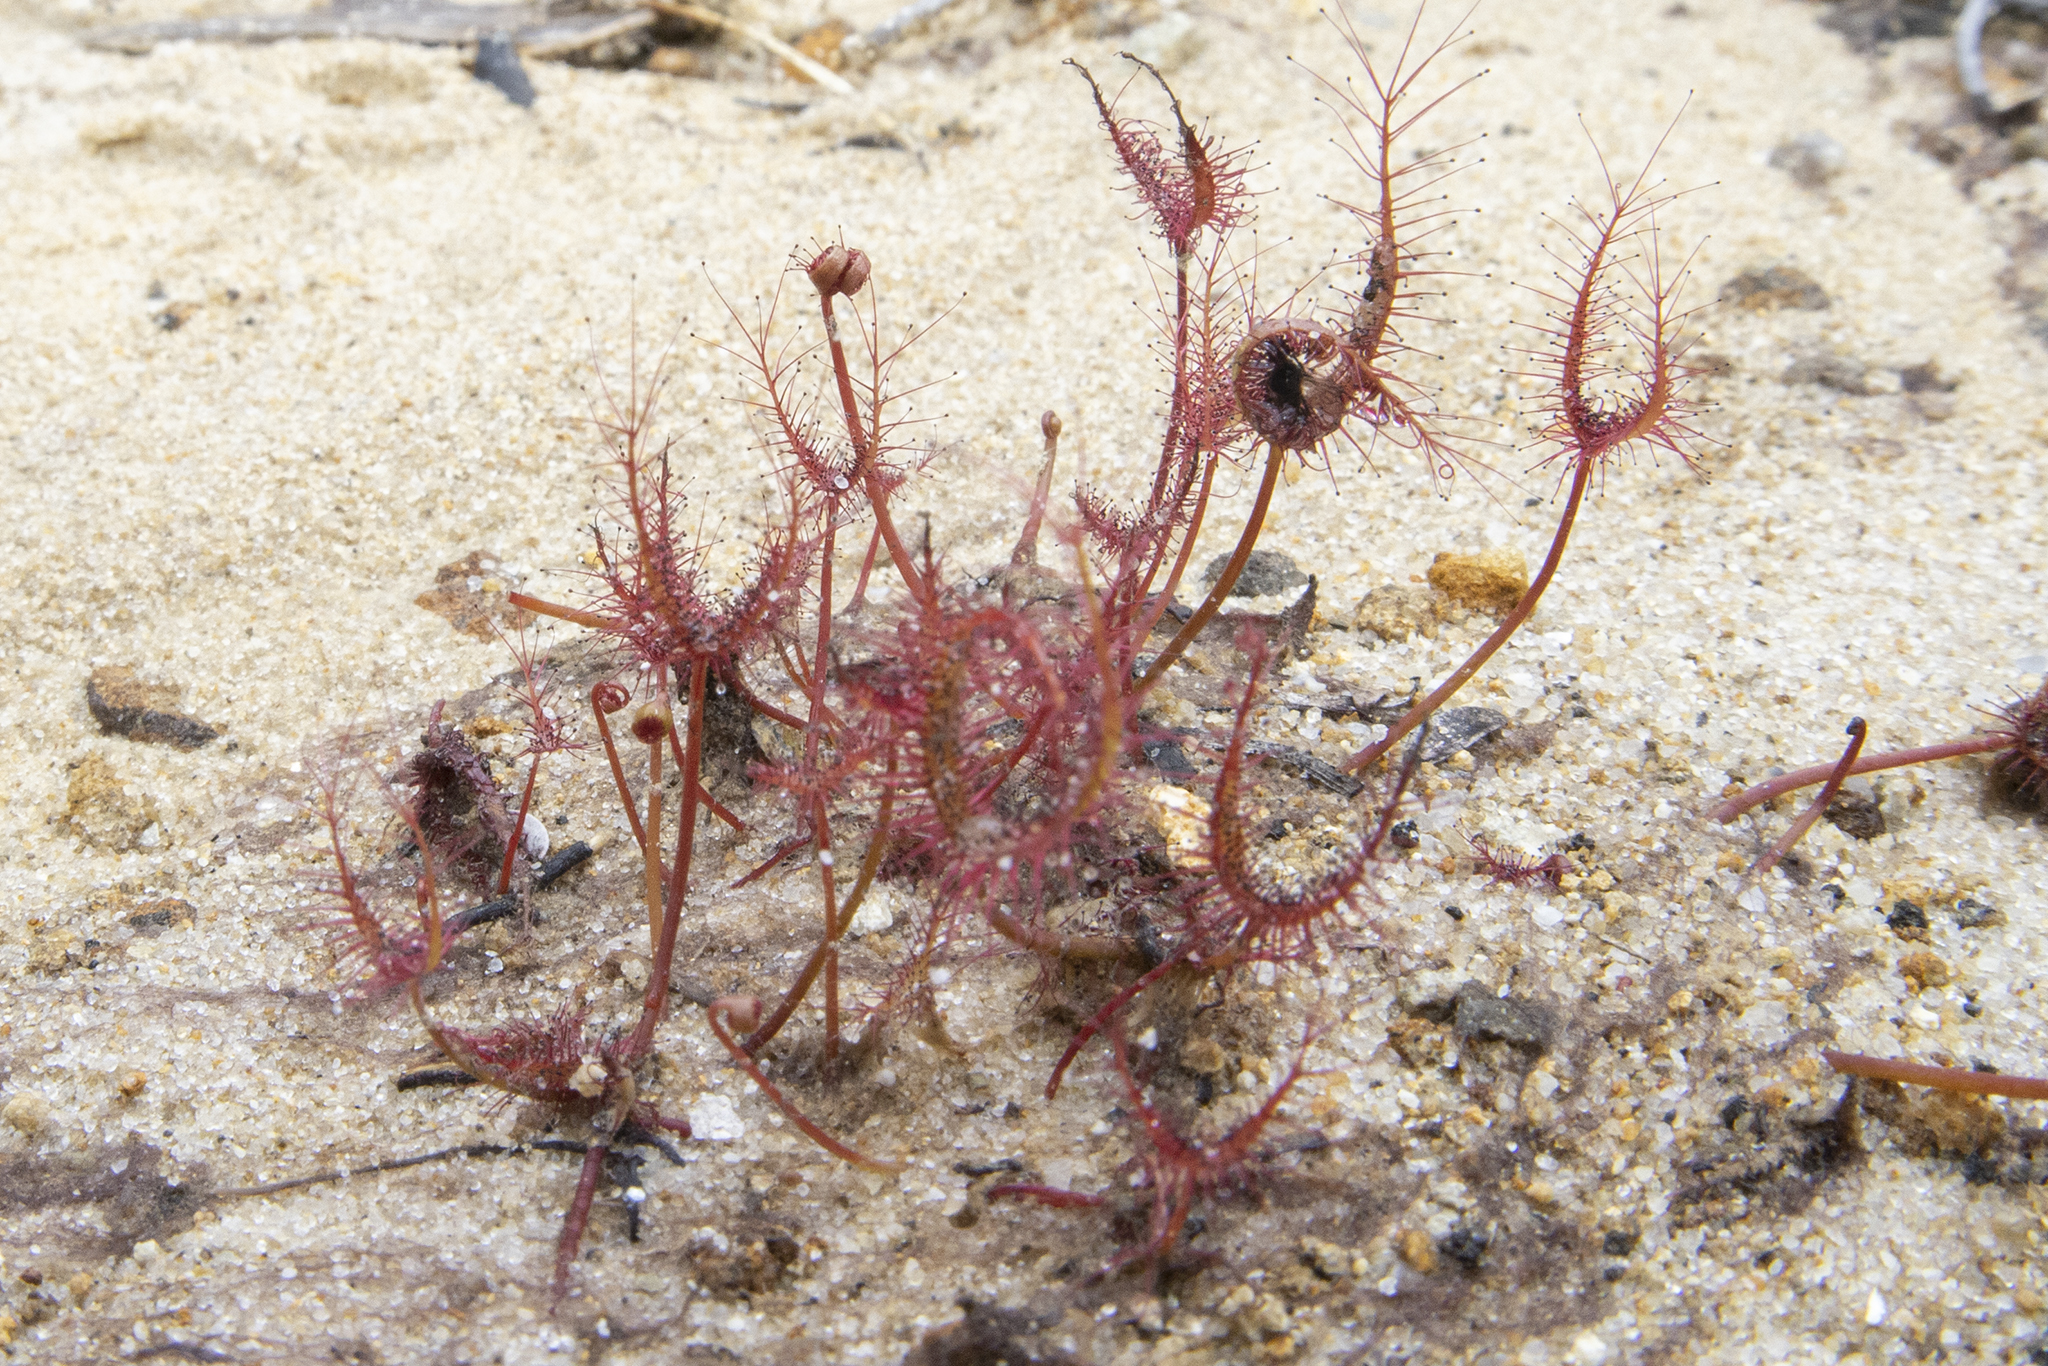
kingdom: Plantae
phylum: Tracheophyta
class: Magnoliopsida
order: Caryophyllales
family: Droseraceae
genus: Drosera
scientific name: Drosera binata
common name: Forked sundew
